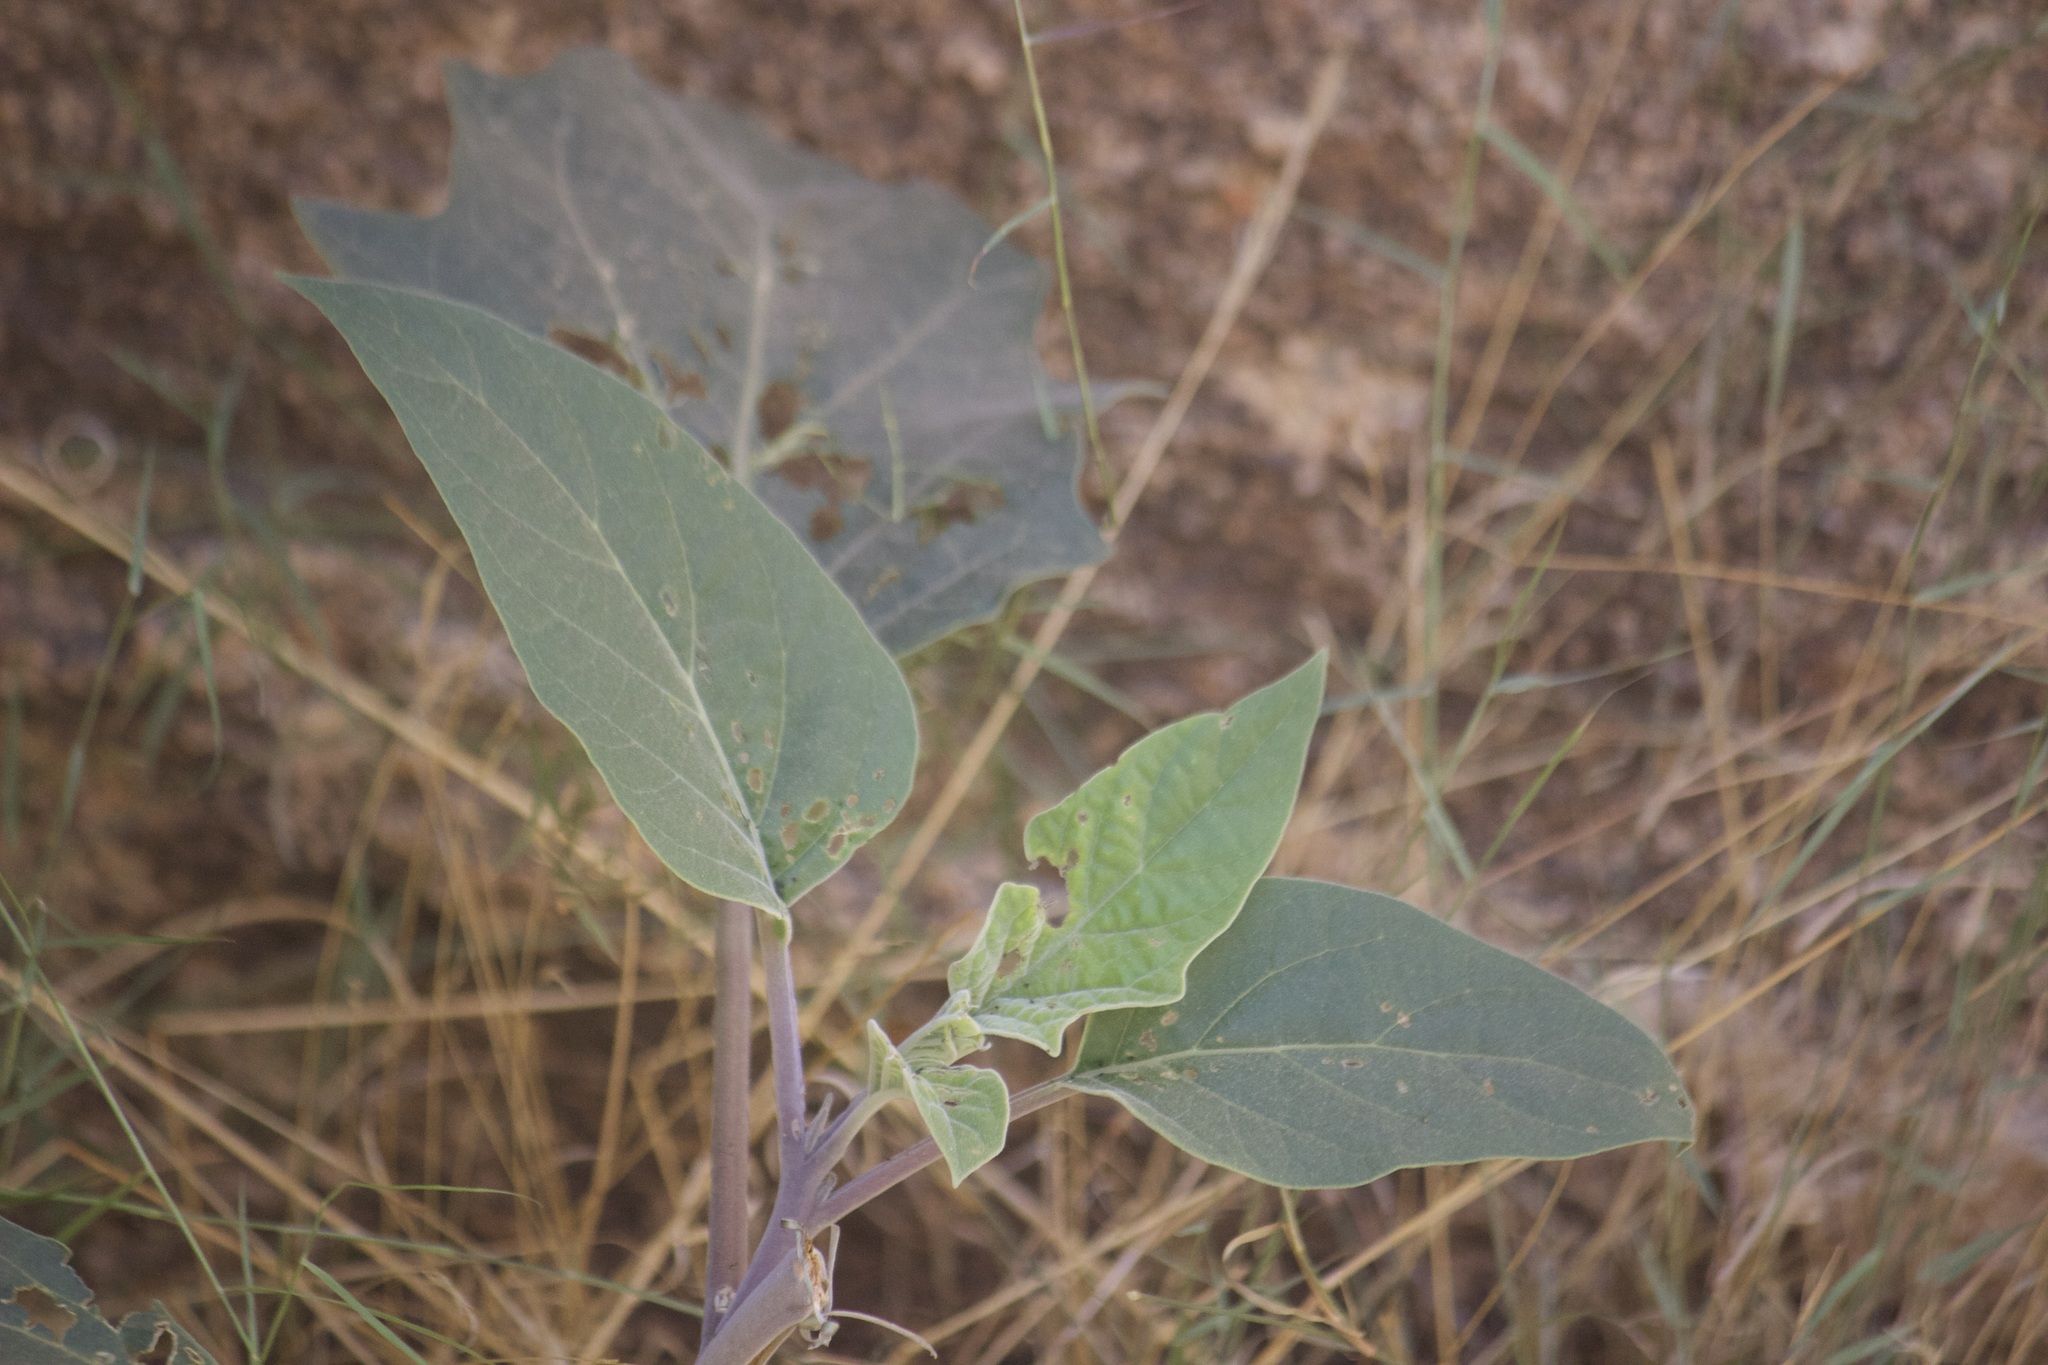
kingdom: Plantae
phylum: Tracheophyta
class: Magnoliopsida
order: Solanales
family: Solanaceae
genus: Datura
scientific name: Datura wrightii
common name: Sacred thorn-apple
